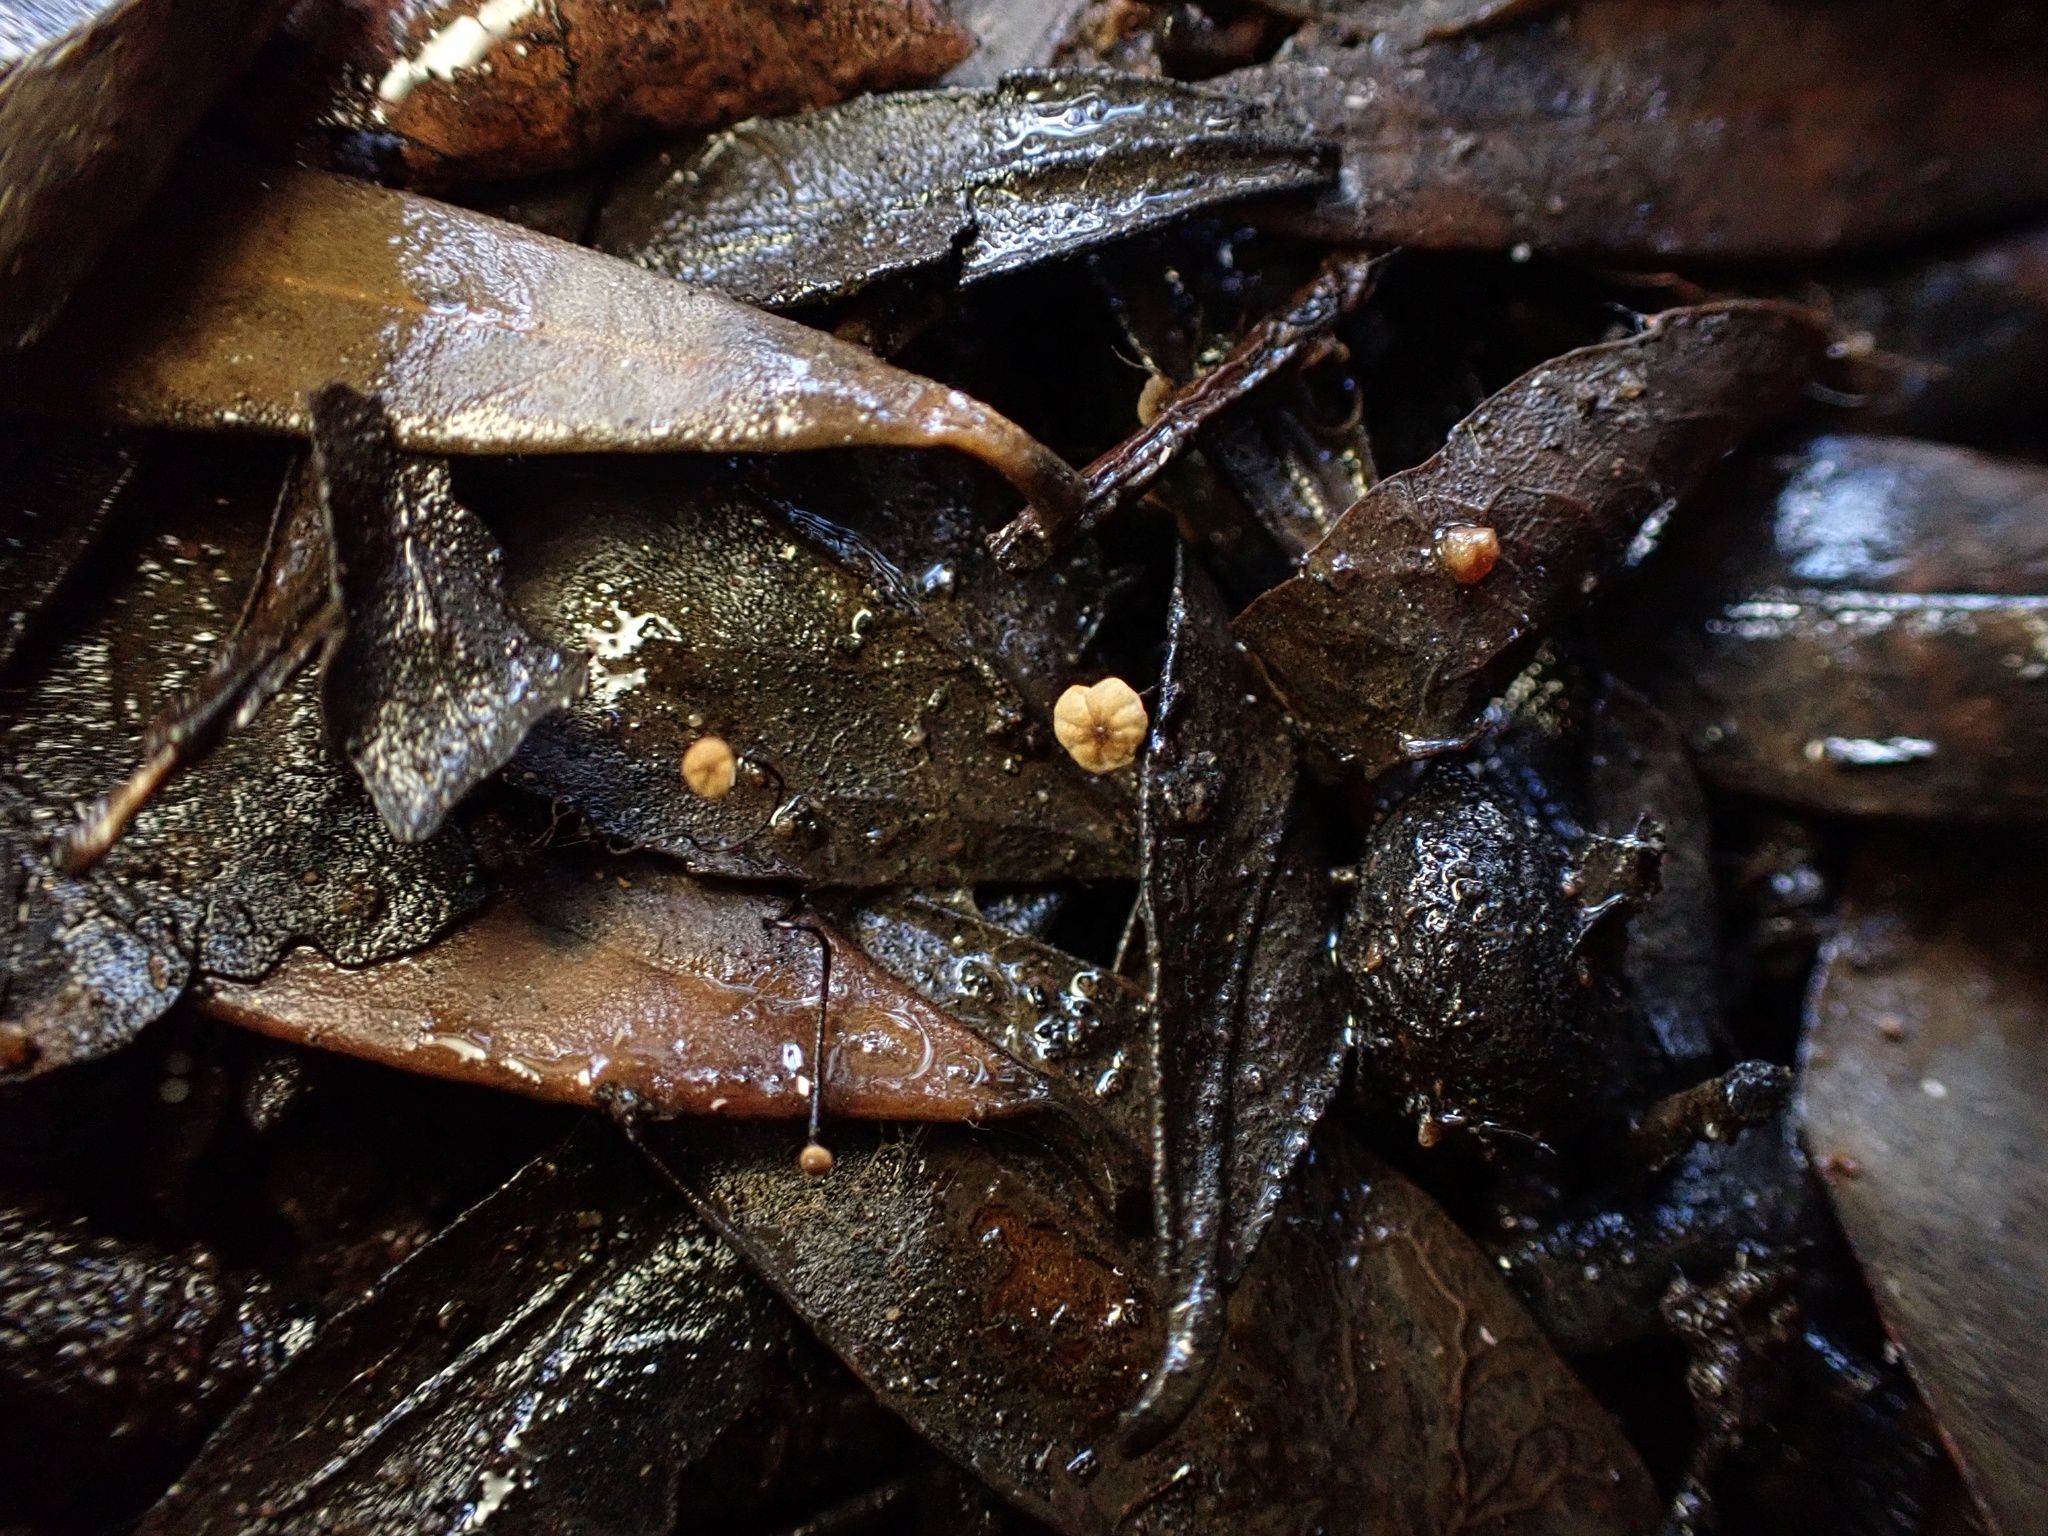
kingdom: Fungi
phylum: Basidiomycota
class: Agaricomycetes
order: Agaricales
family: Physalacriaceae
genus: Cryptomarasmius
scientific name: Cryptomarasmius corbariensis
